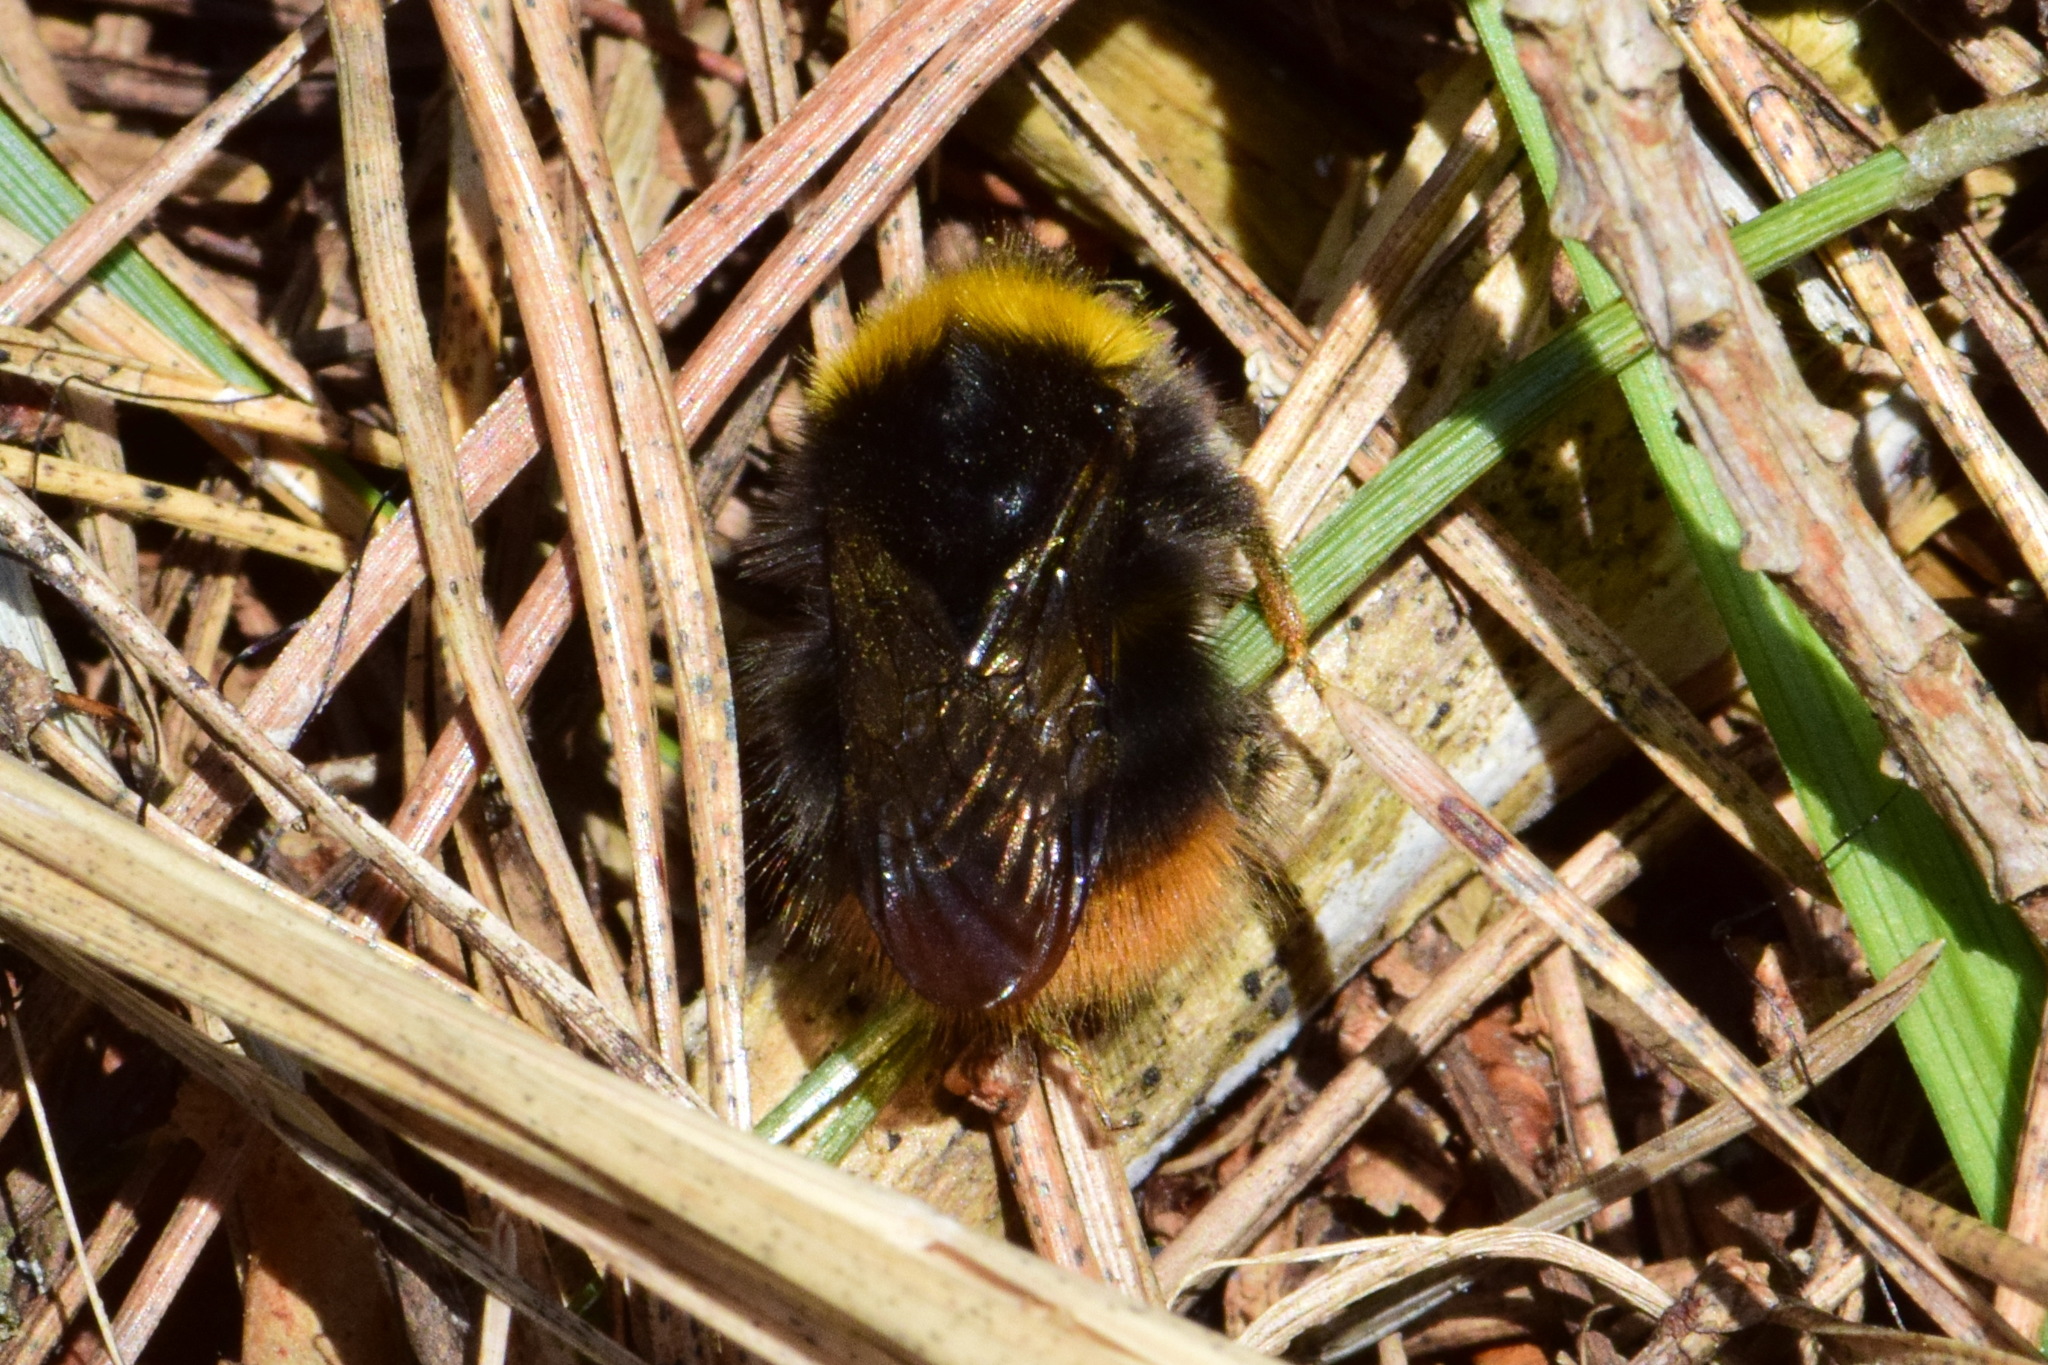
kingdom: Animalia
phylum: Arthropoda
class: Insecta
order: Hymenoptera
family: Apidae
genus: Bombus
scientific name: Bombus pratorum
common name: Early humble-bee
